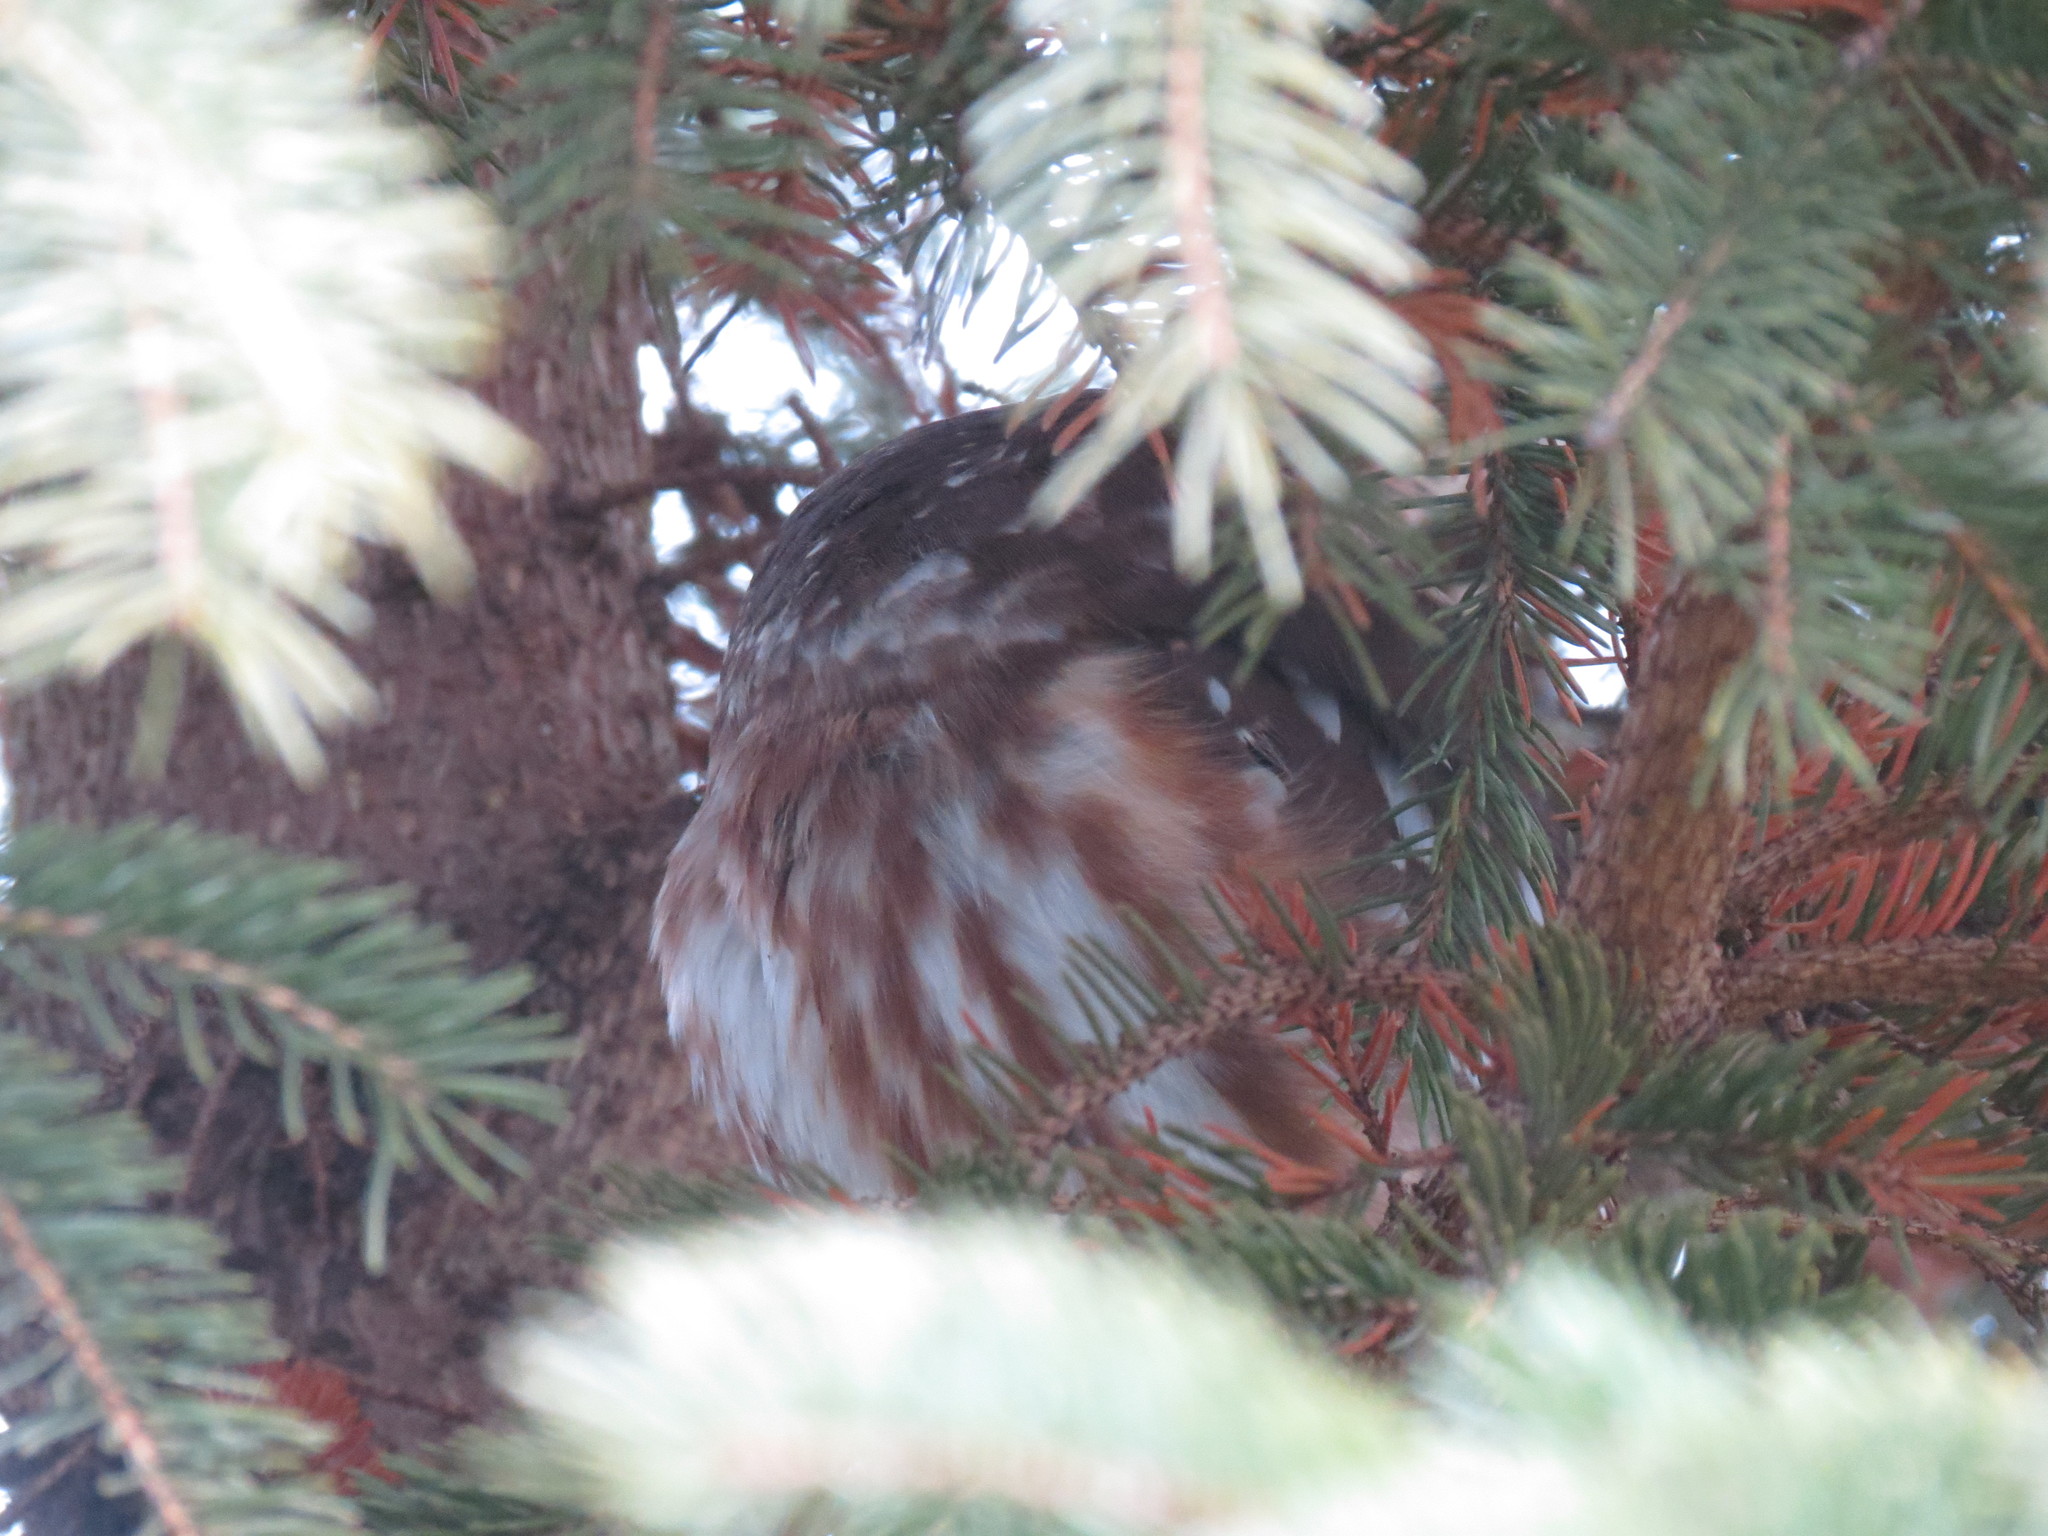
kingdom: Animalia
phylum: Chordata
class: Aves
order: Strigiformes
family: Strigidae
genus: Aegolius
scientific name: Aegolius acadicus
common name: Northern saw-whet owl
